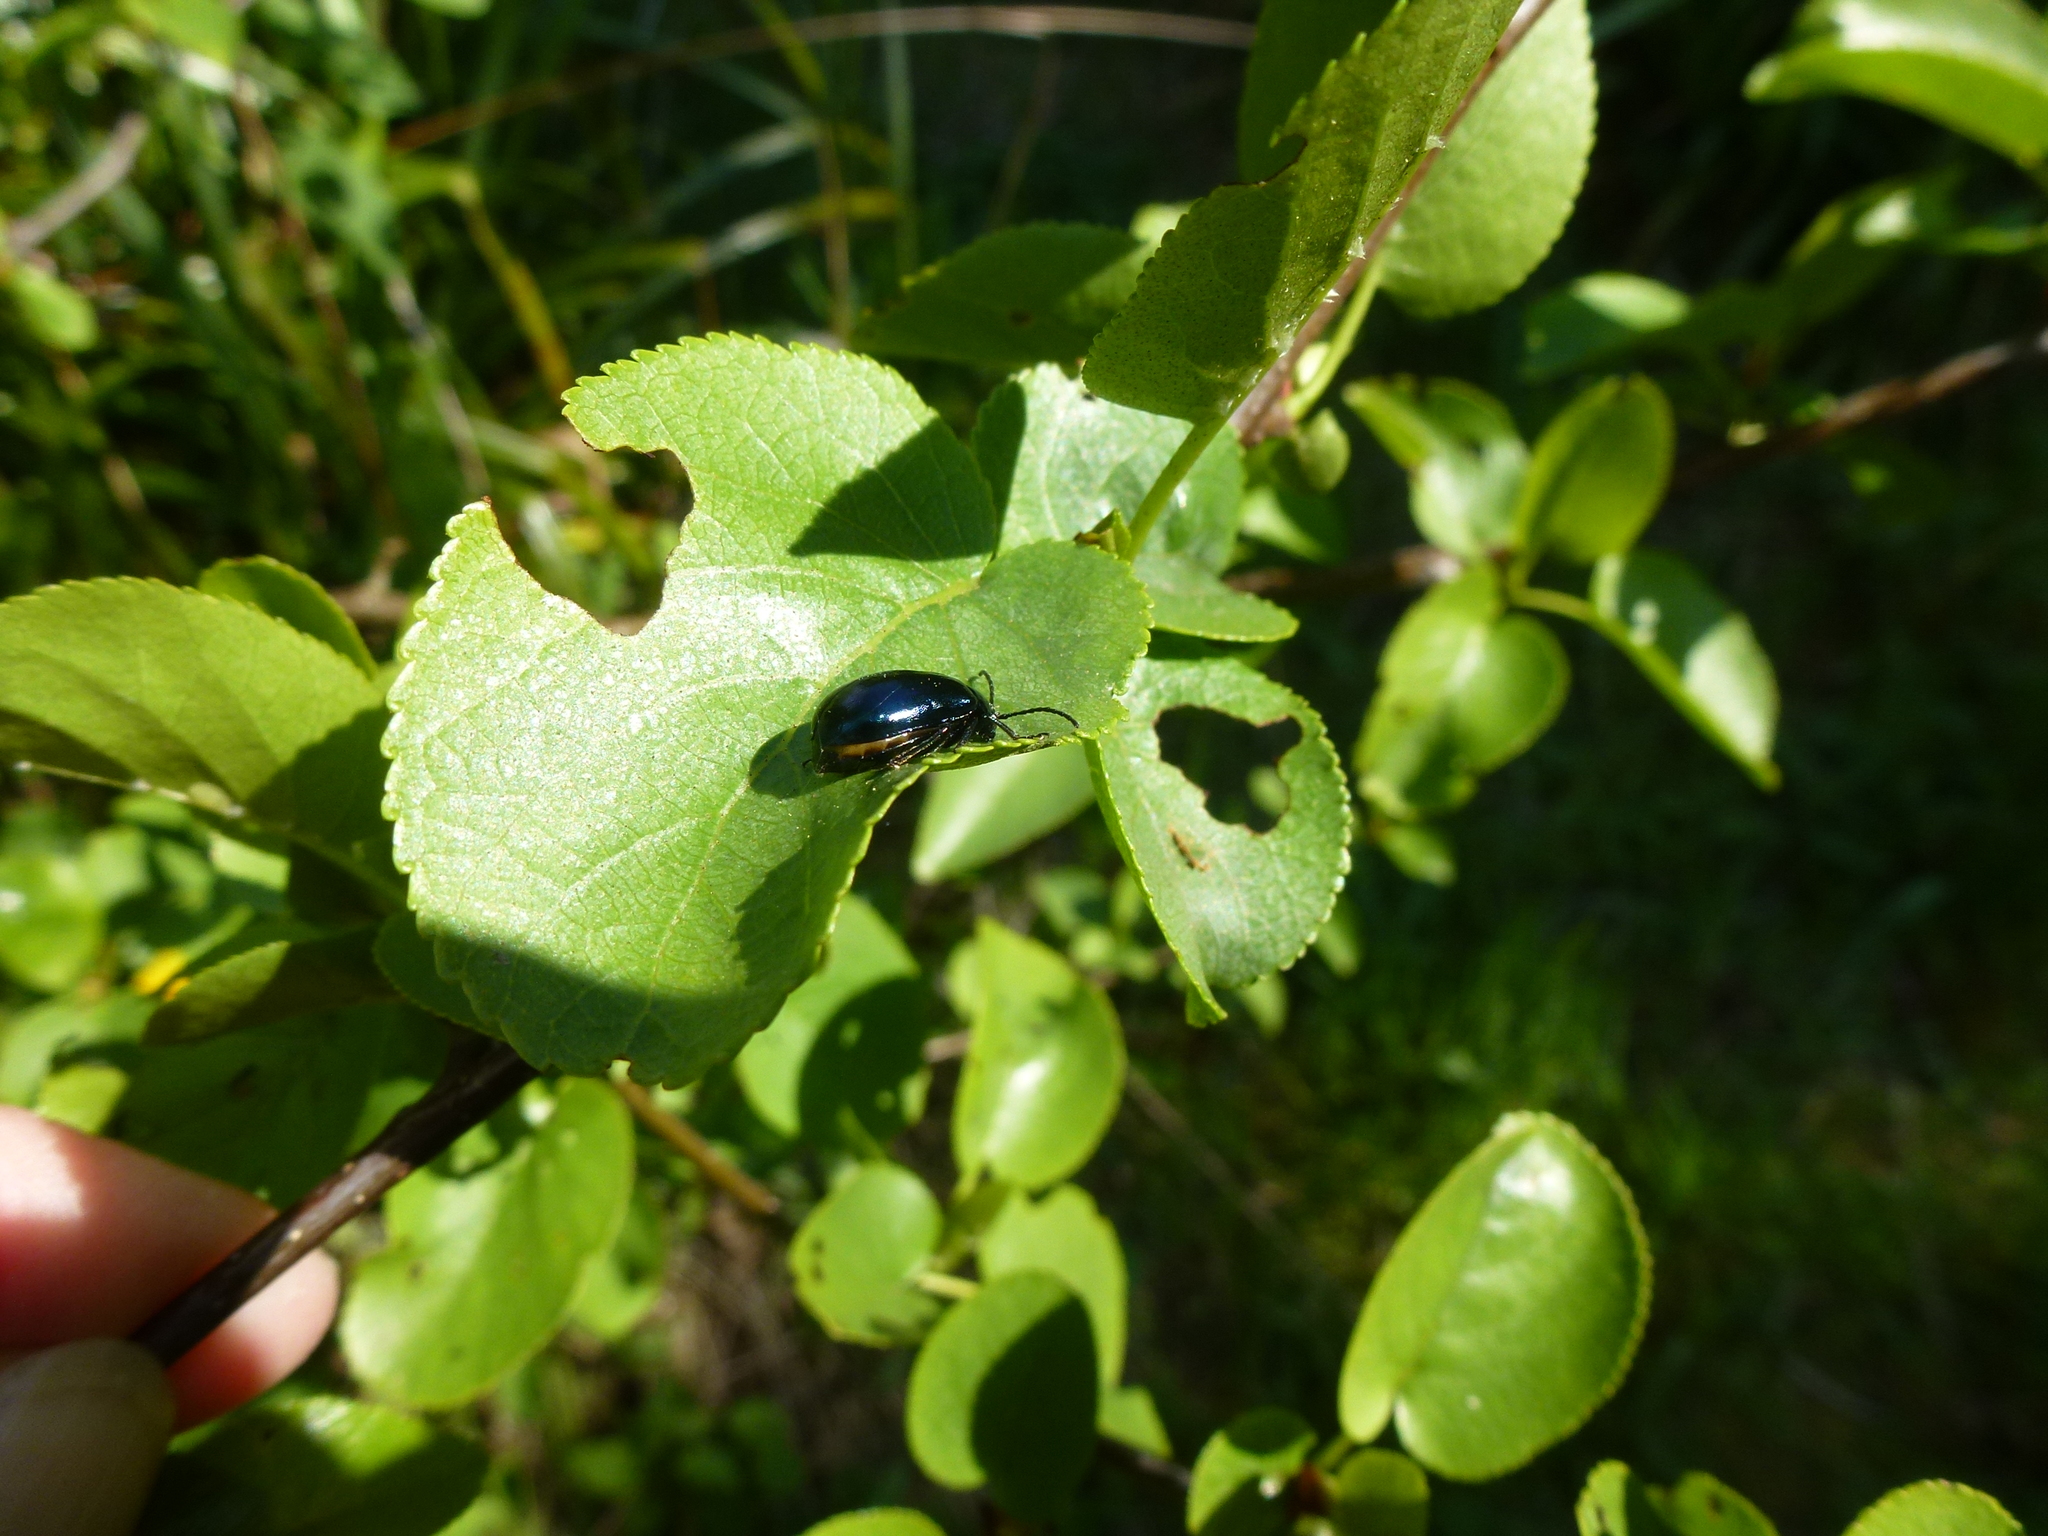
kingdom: Animalia
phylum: Arthropoda
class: Insecta
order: Coleoptera
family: Chrysomelidae
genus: Agelastica
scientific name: Agelastica alni
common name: Alder leaf beetle
